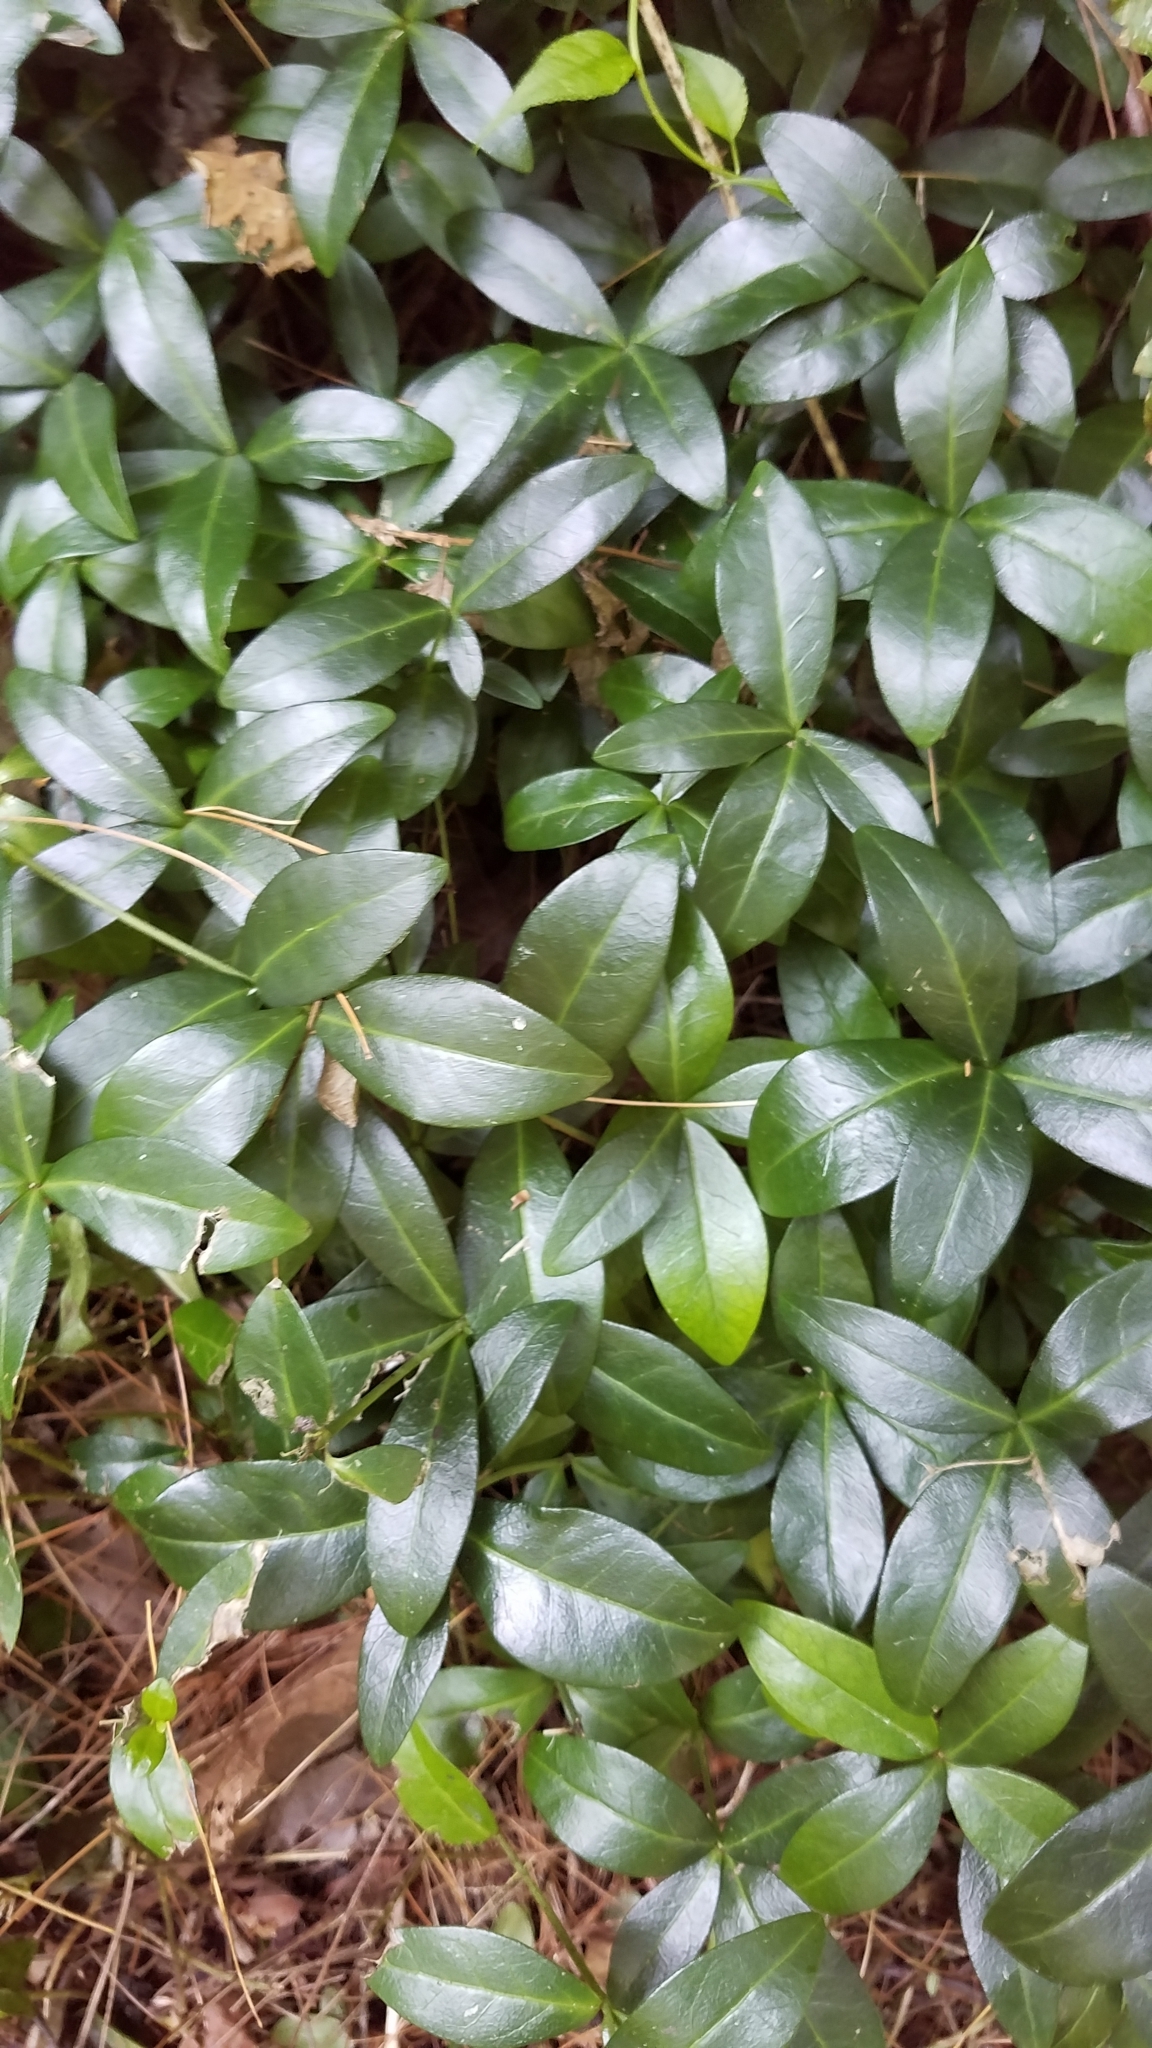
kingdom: Plantae
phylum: Tracheophyta
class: Magnoliopsida
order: Gentianales
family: Apocynaceae
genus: Vinca
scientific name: Vinca minor
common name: Lesser periwinkle
